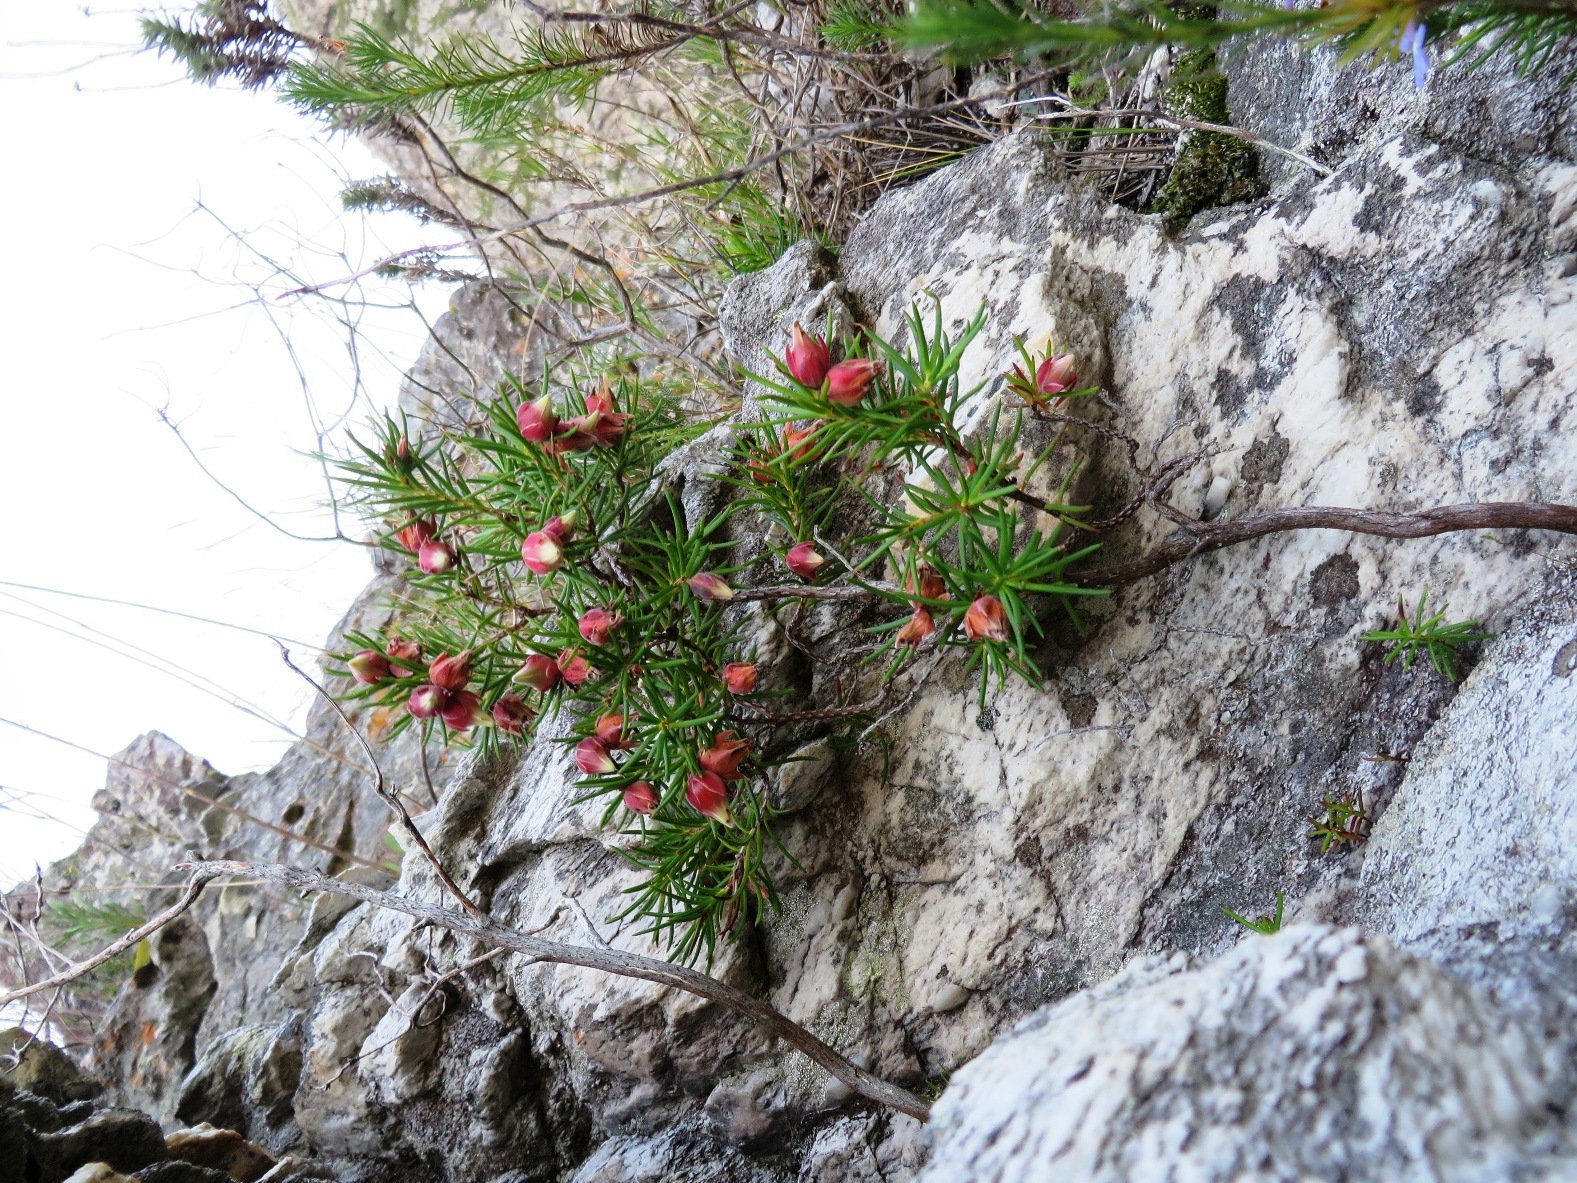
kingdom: Plantae
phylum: Tracheophyta
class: Magnoliopsida
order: Ericales
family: Ericaceae
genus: Erica
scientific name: Erica lanuginosa
